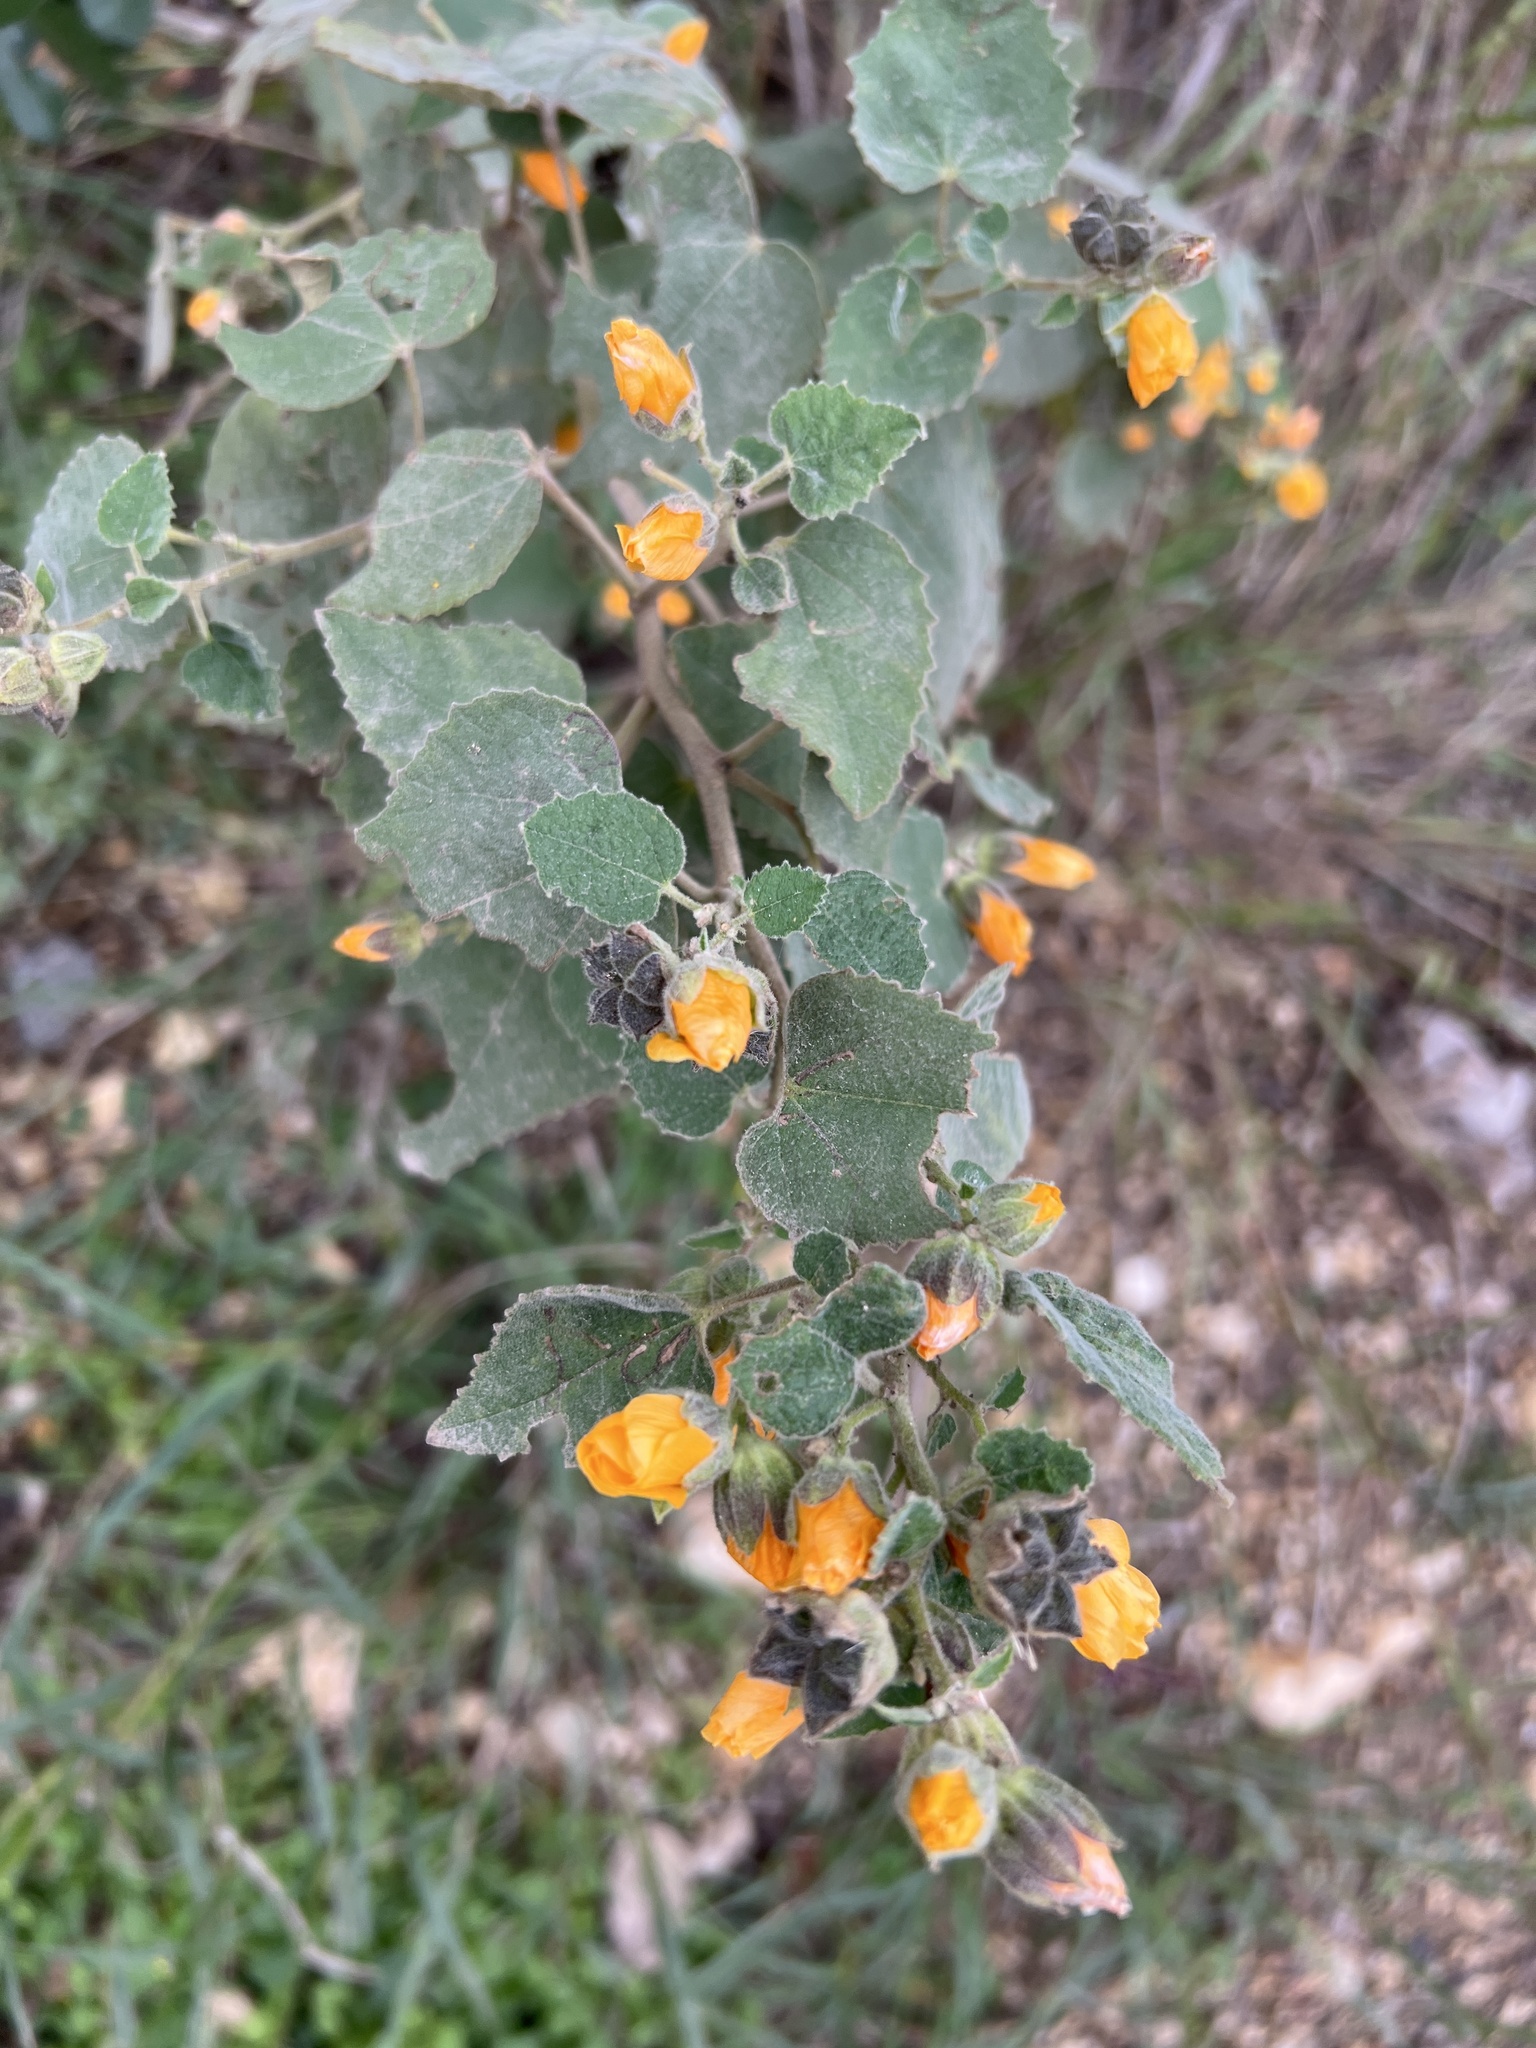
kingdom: Plantae
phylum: Tracheophyta
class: Magnoliopsida
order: Malvales
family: Malvaceae
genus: Allowissadula
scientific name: Allowissadula holosericea
